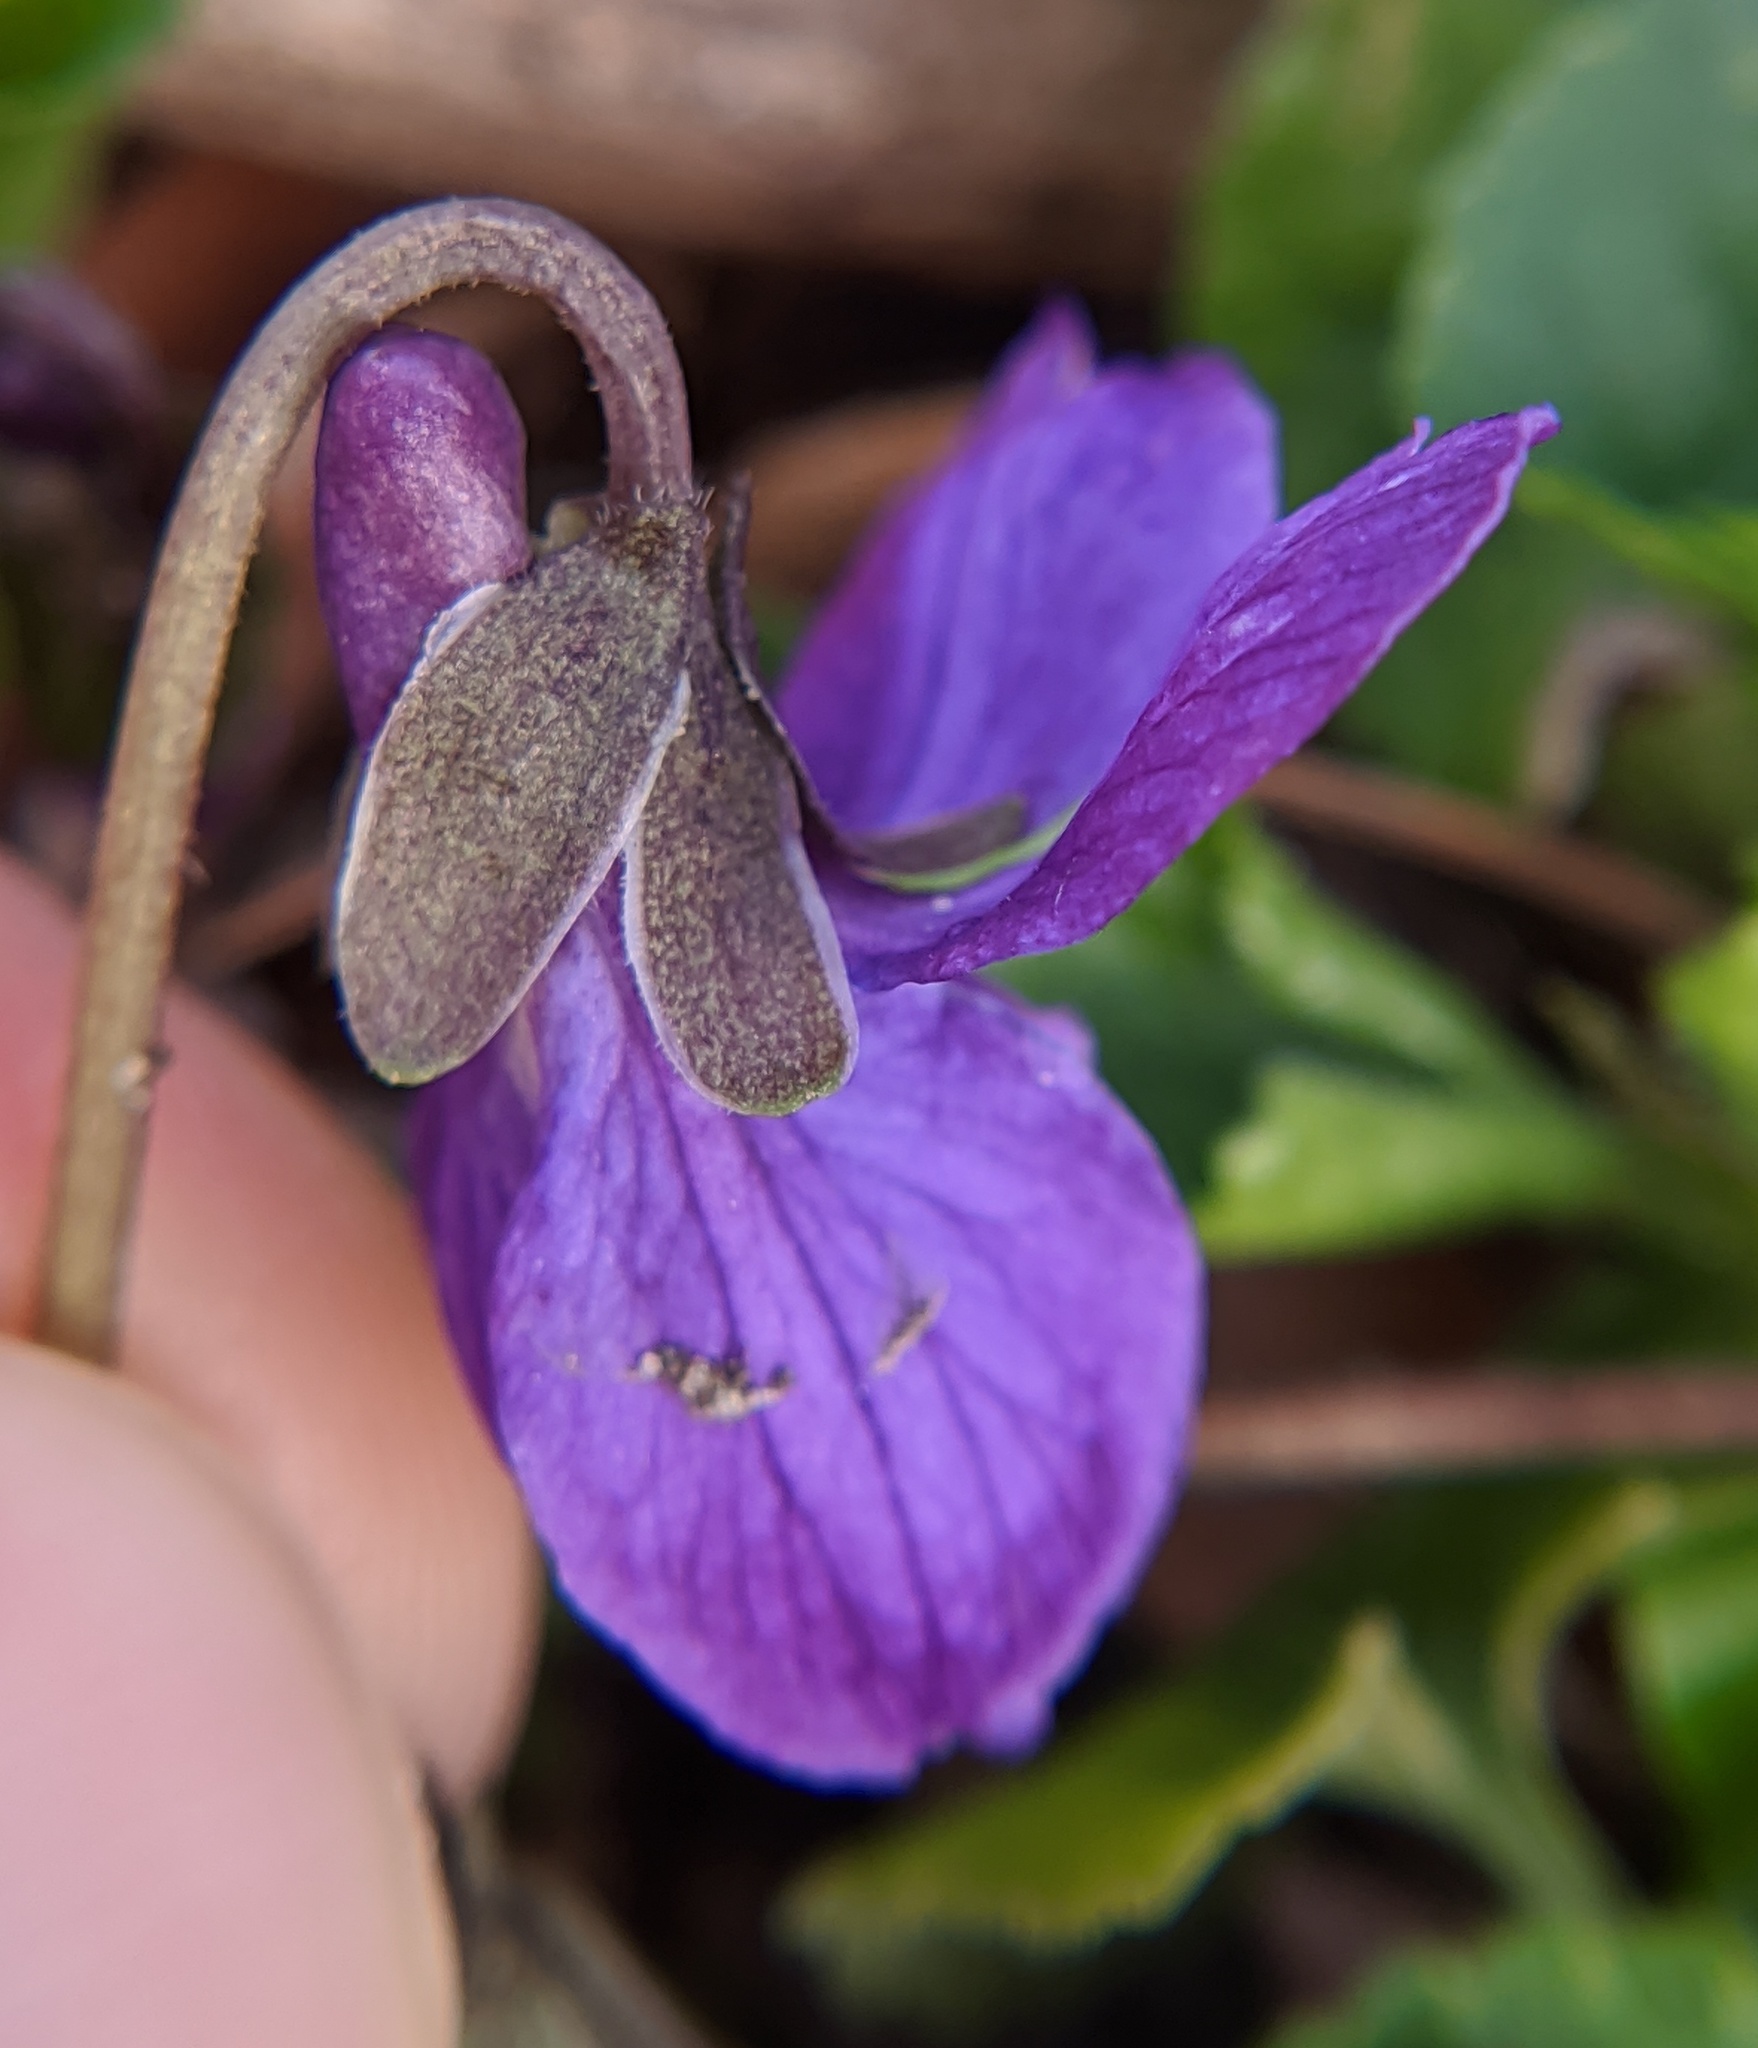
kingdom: Plantae
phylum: Tracheophyta
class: Magnoliopsida
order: Malpighiales
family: Violaceae
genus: Viola
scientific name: Viola odorata
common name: Sweet violet
